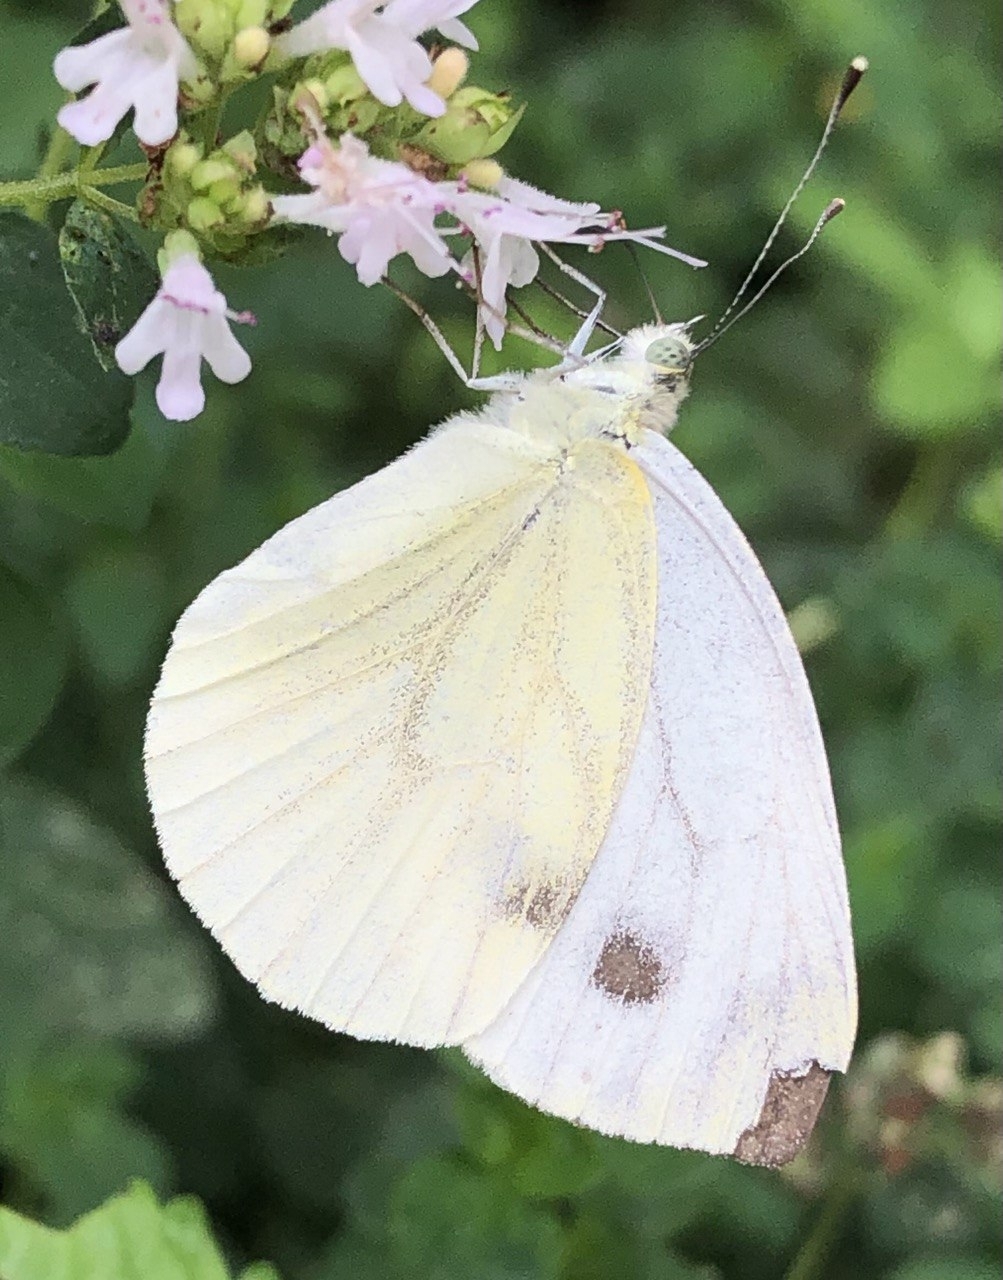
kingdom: Animalia
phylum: Arthropoda
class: Insecta
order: Lepidoptera
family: Pieridae
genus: Pieris
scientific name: Pieris napi
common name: Green-veined white
